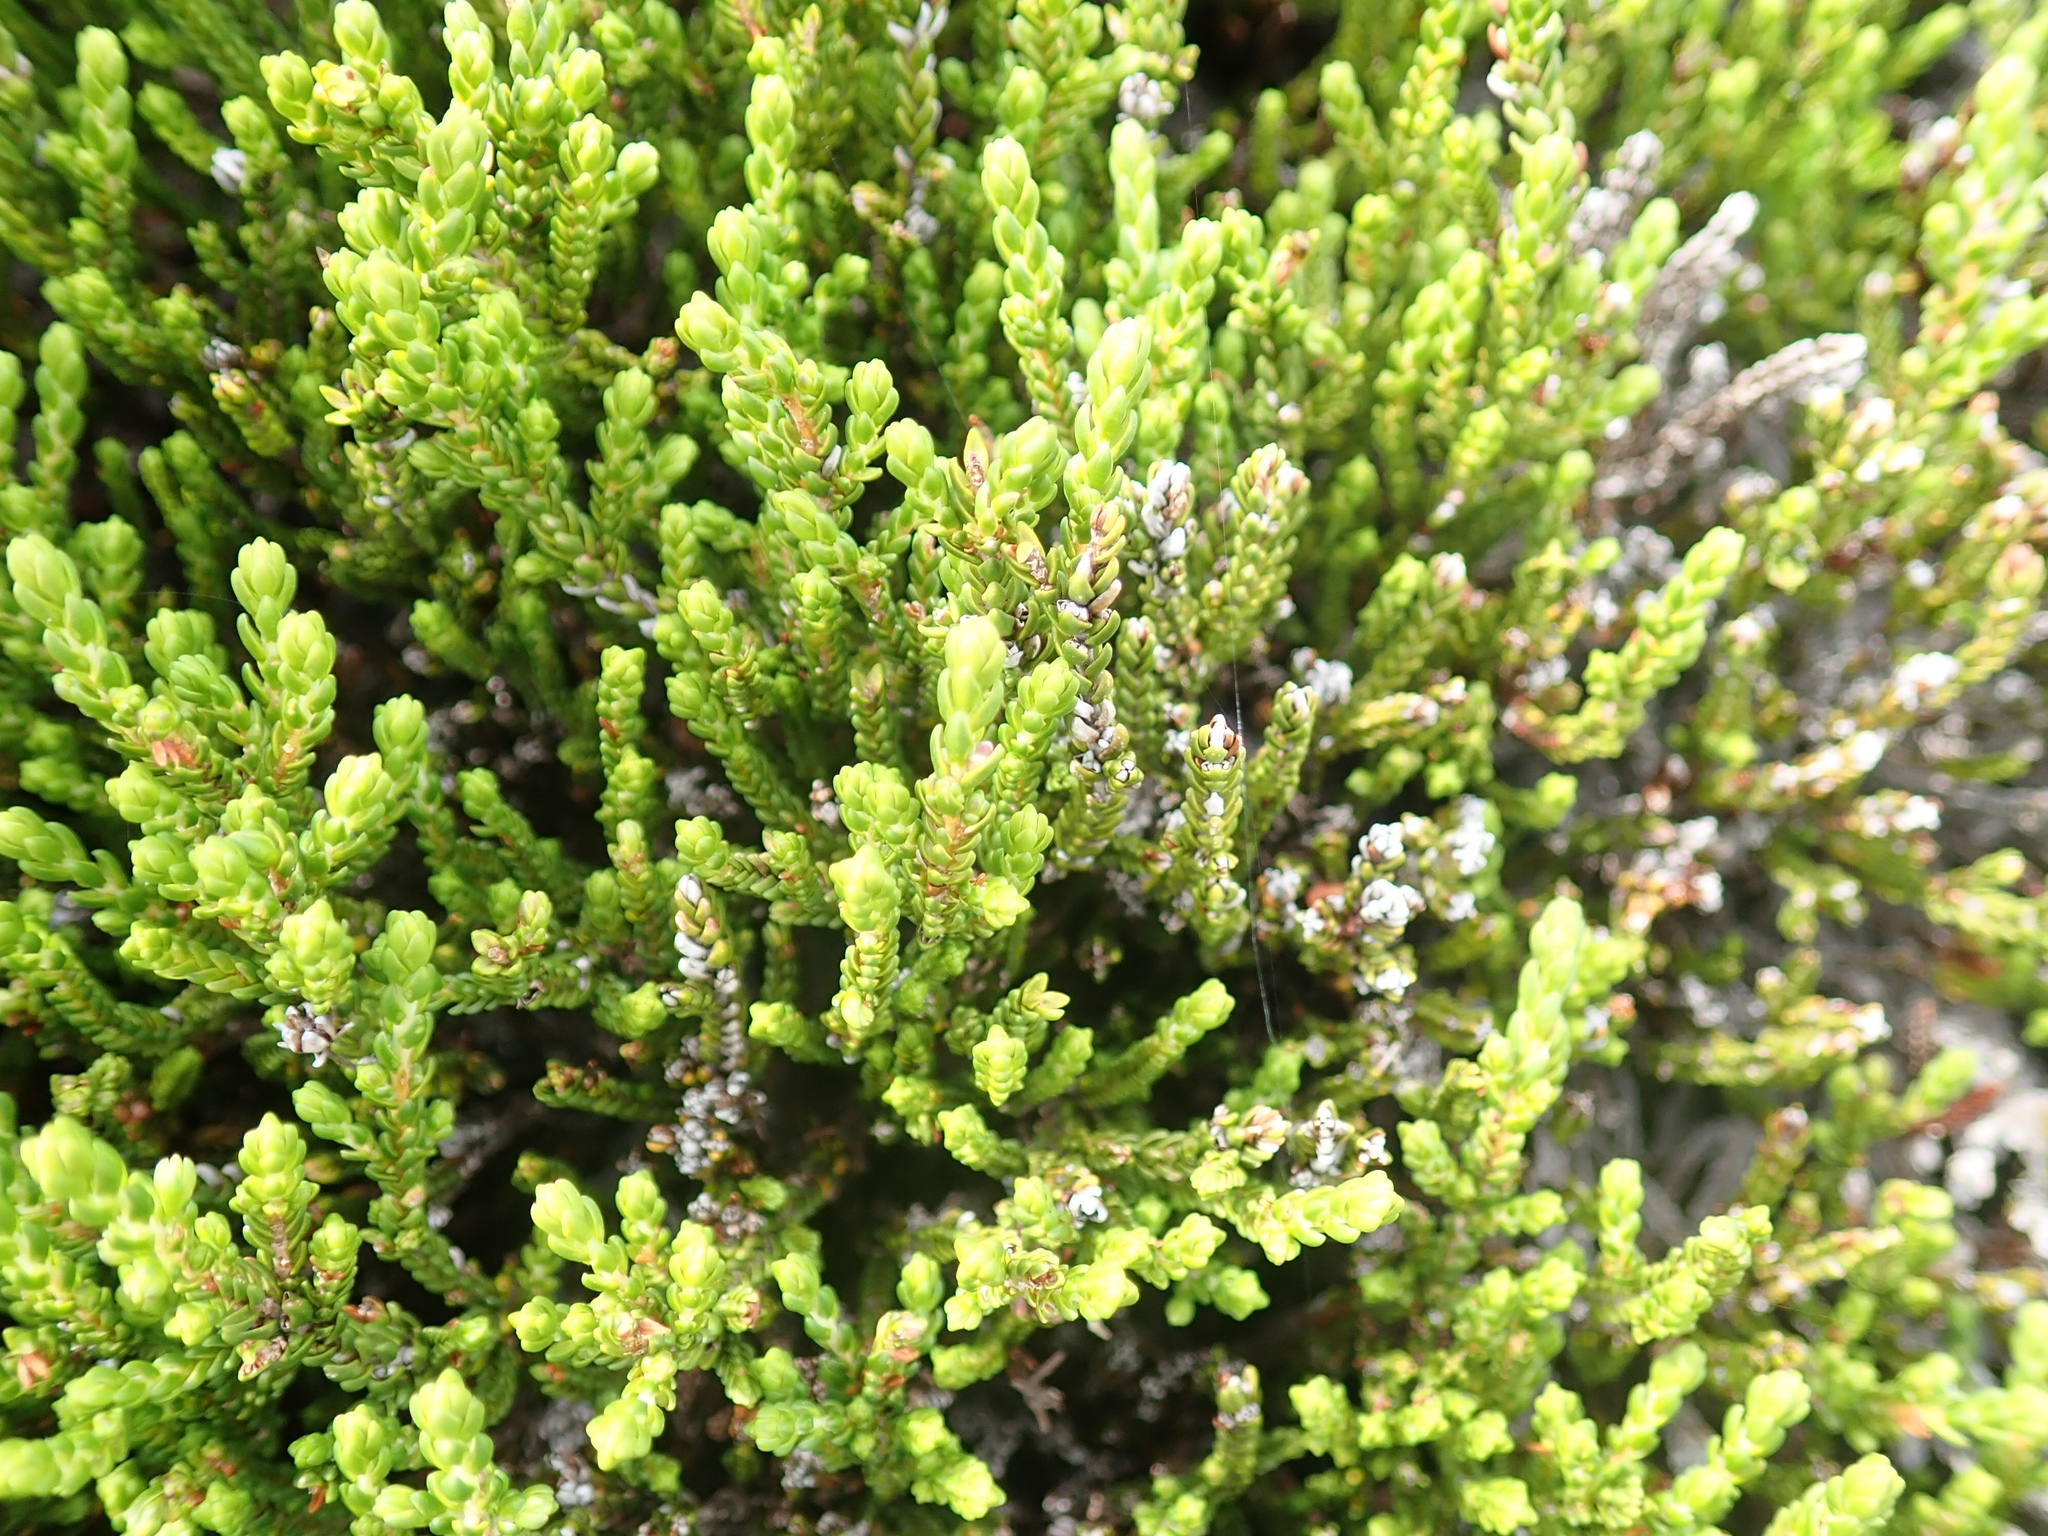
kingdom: Plantae
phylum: Tracheophyta
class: Magnoliopsida
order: Ericales
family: Ericaceae
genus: Cassiope
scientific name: Cassiope mertensiana
